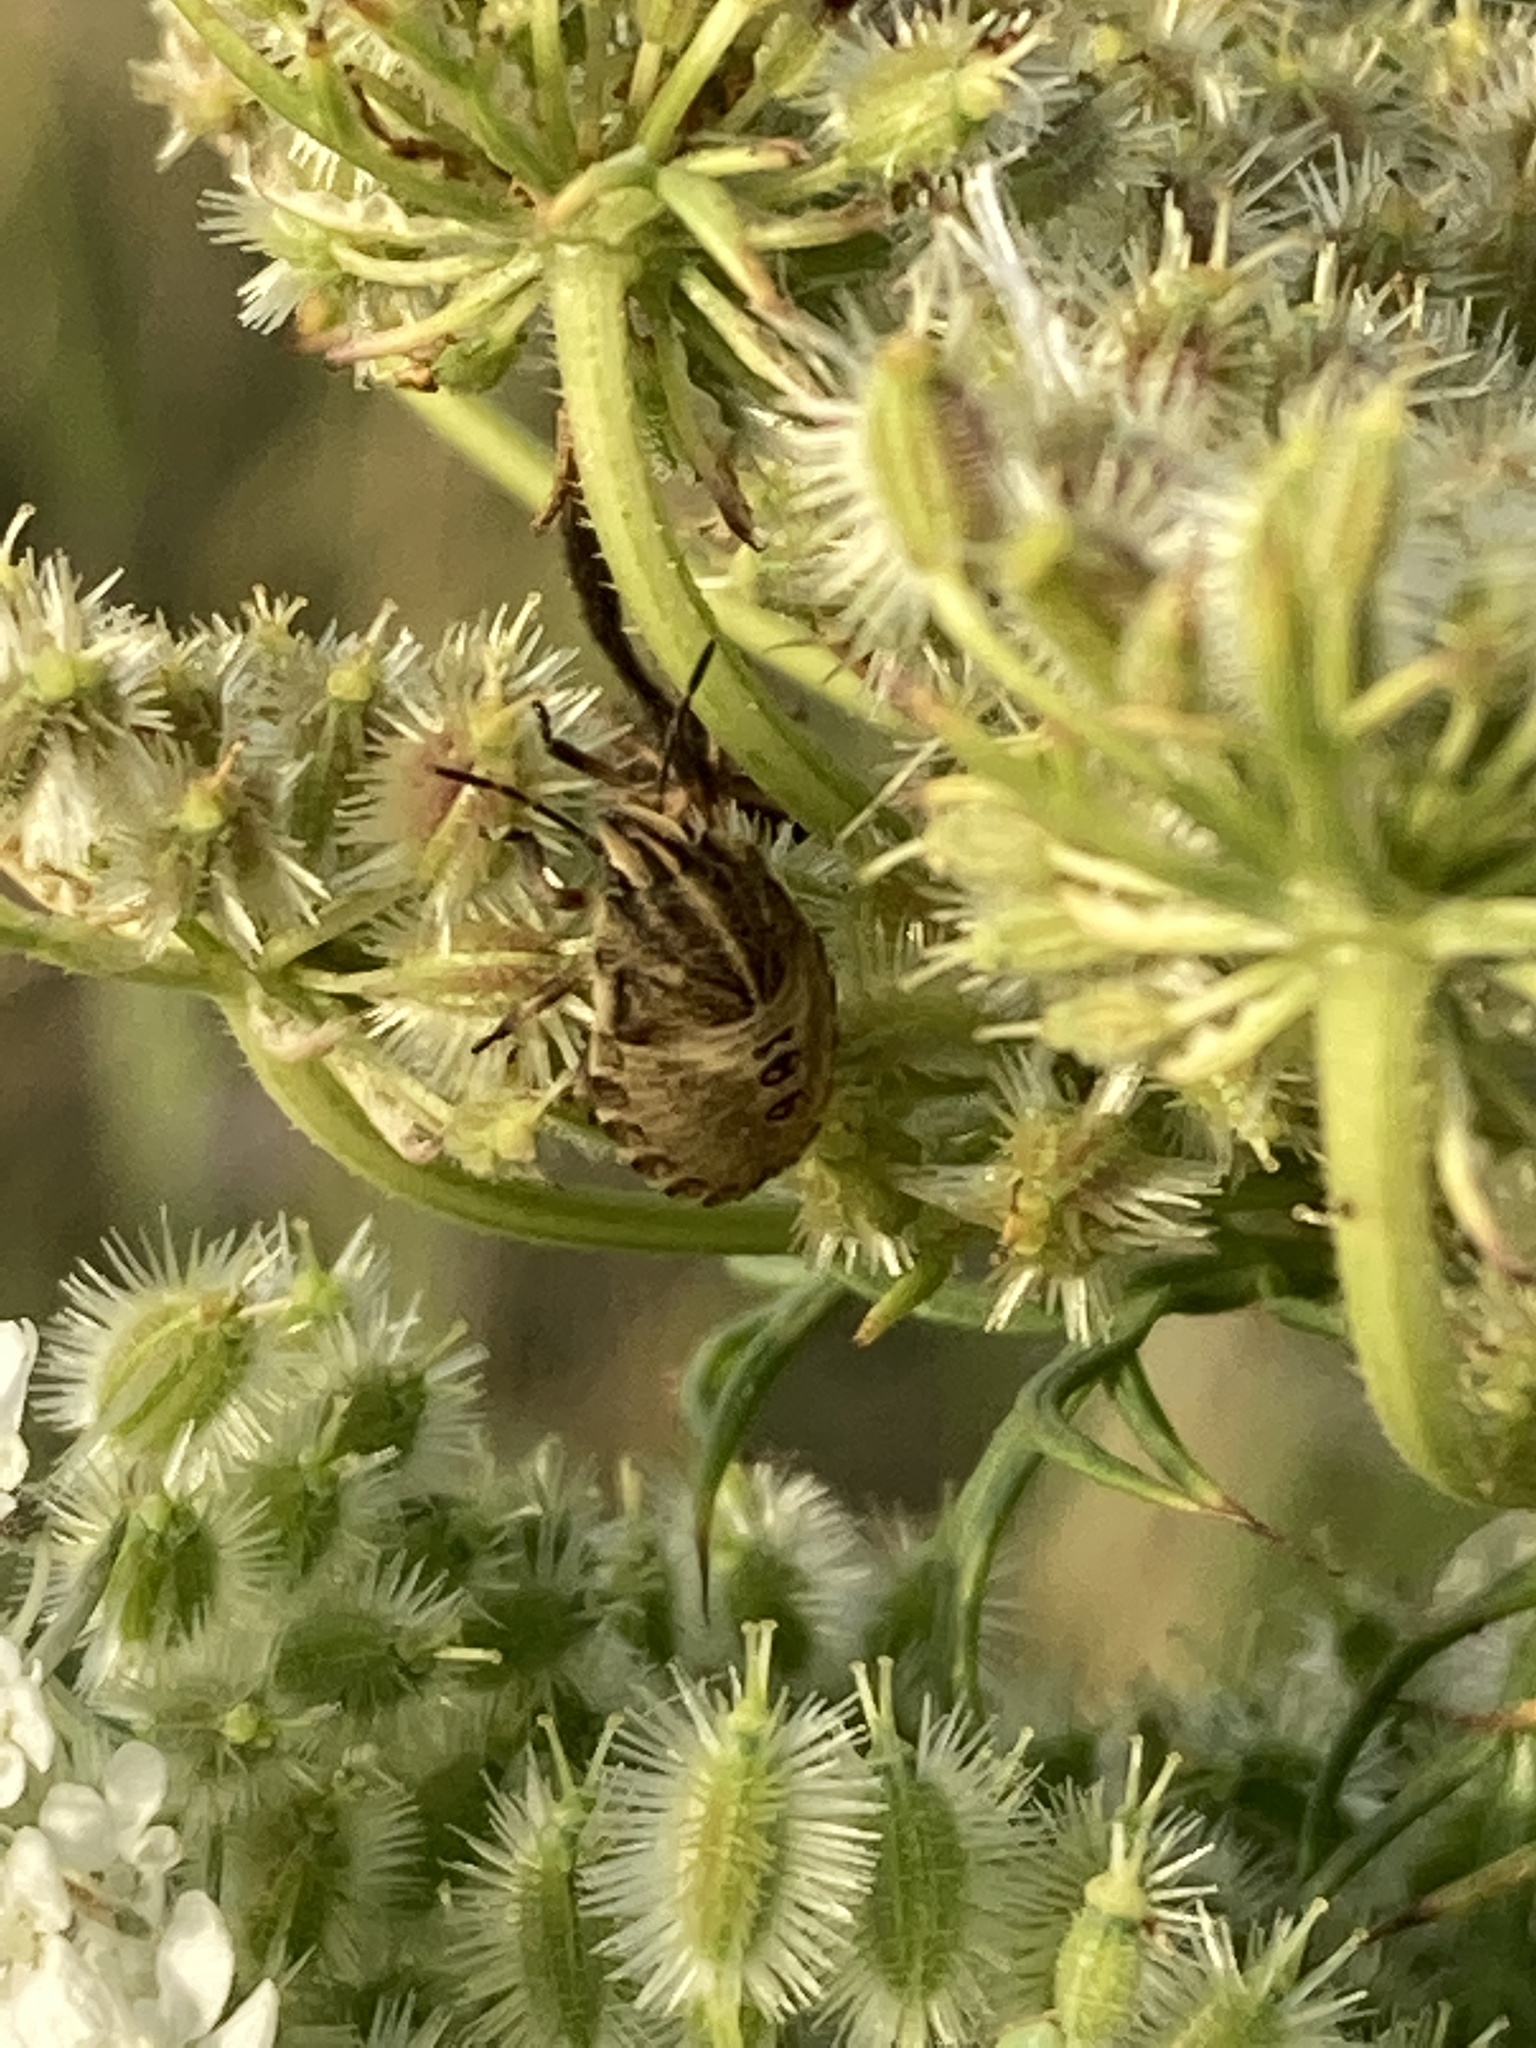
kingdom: Animalia
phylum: Arthropoda
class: Insecta
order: Hemiptera
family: Pentatomidae
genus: Graphosoma
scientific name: Graphosoma italicum
